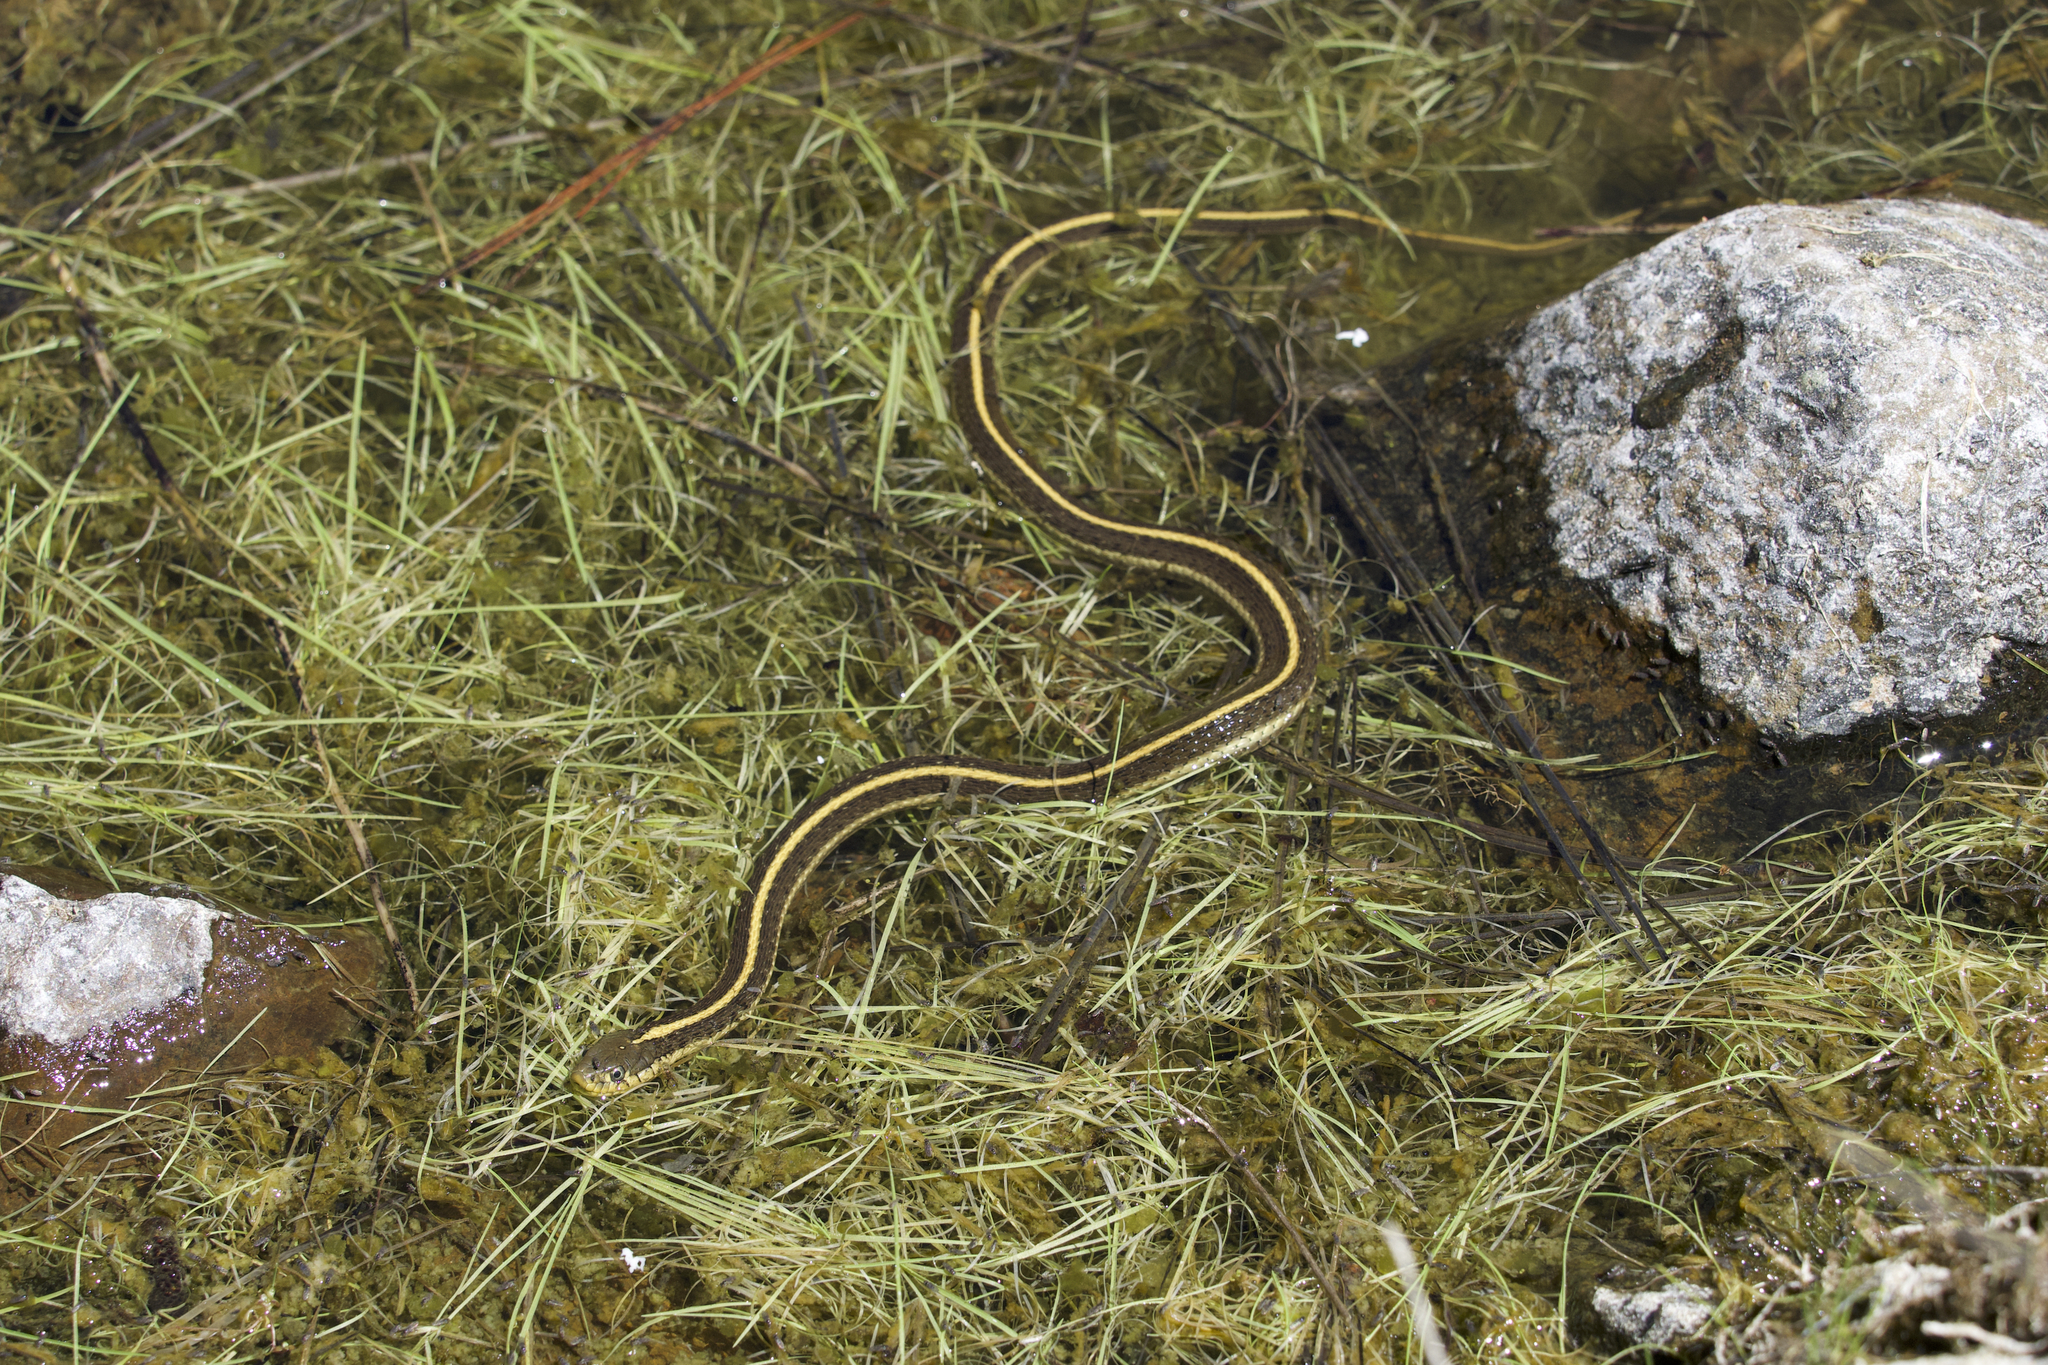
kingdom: Animalia
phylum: Chordata
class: Squamata
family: Colubridae
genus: Thamnophis
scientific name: Thamnophis atratus
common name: Pacific coast aquatic garter snake
